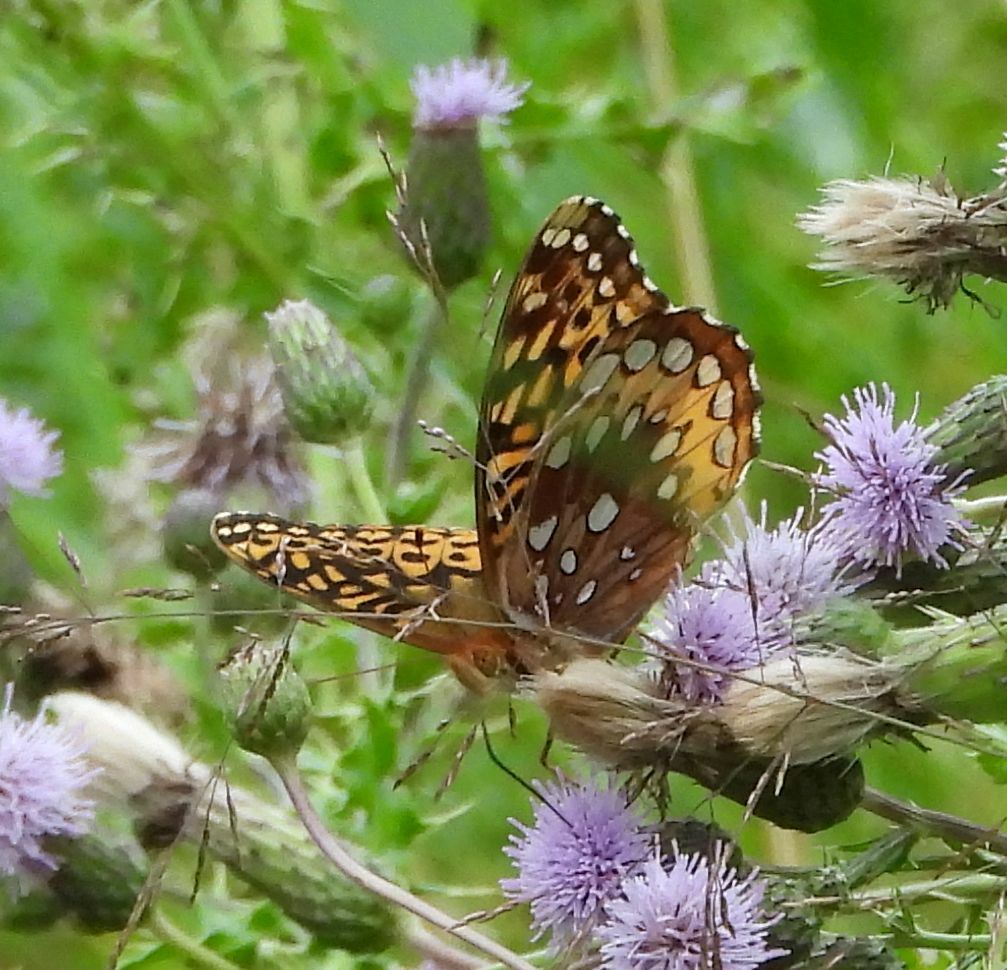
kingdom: Animalia
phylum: Arthropoda
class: Insecta
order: Lepidoptera
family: Nymphalidae
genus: Speyeria
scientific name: Speyeria cybele
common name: Great spangled fritillary
